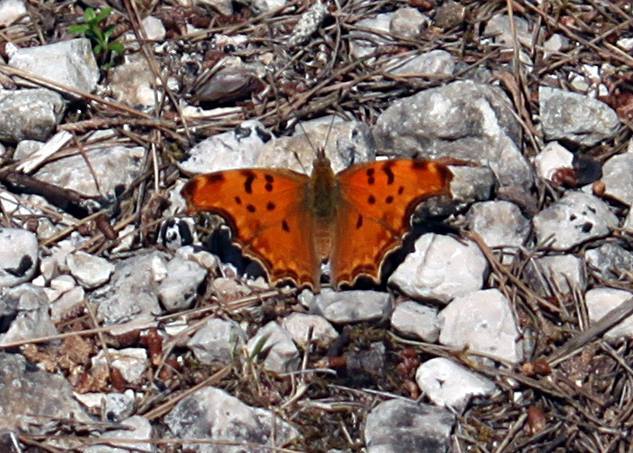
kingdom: Animalia
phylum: Arthropoda
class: Insecta
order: Lepidoptera
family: Nymphalidae
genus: Polygonia
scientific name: Polygonia egea
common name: Southern comma
